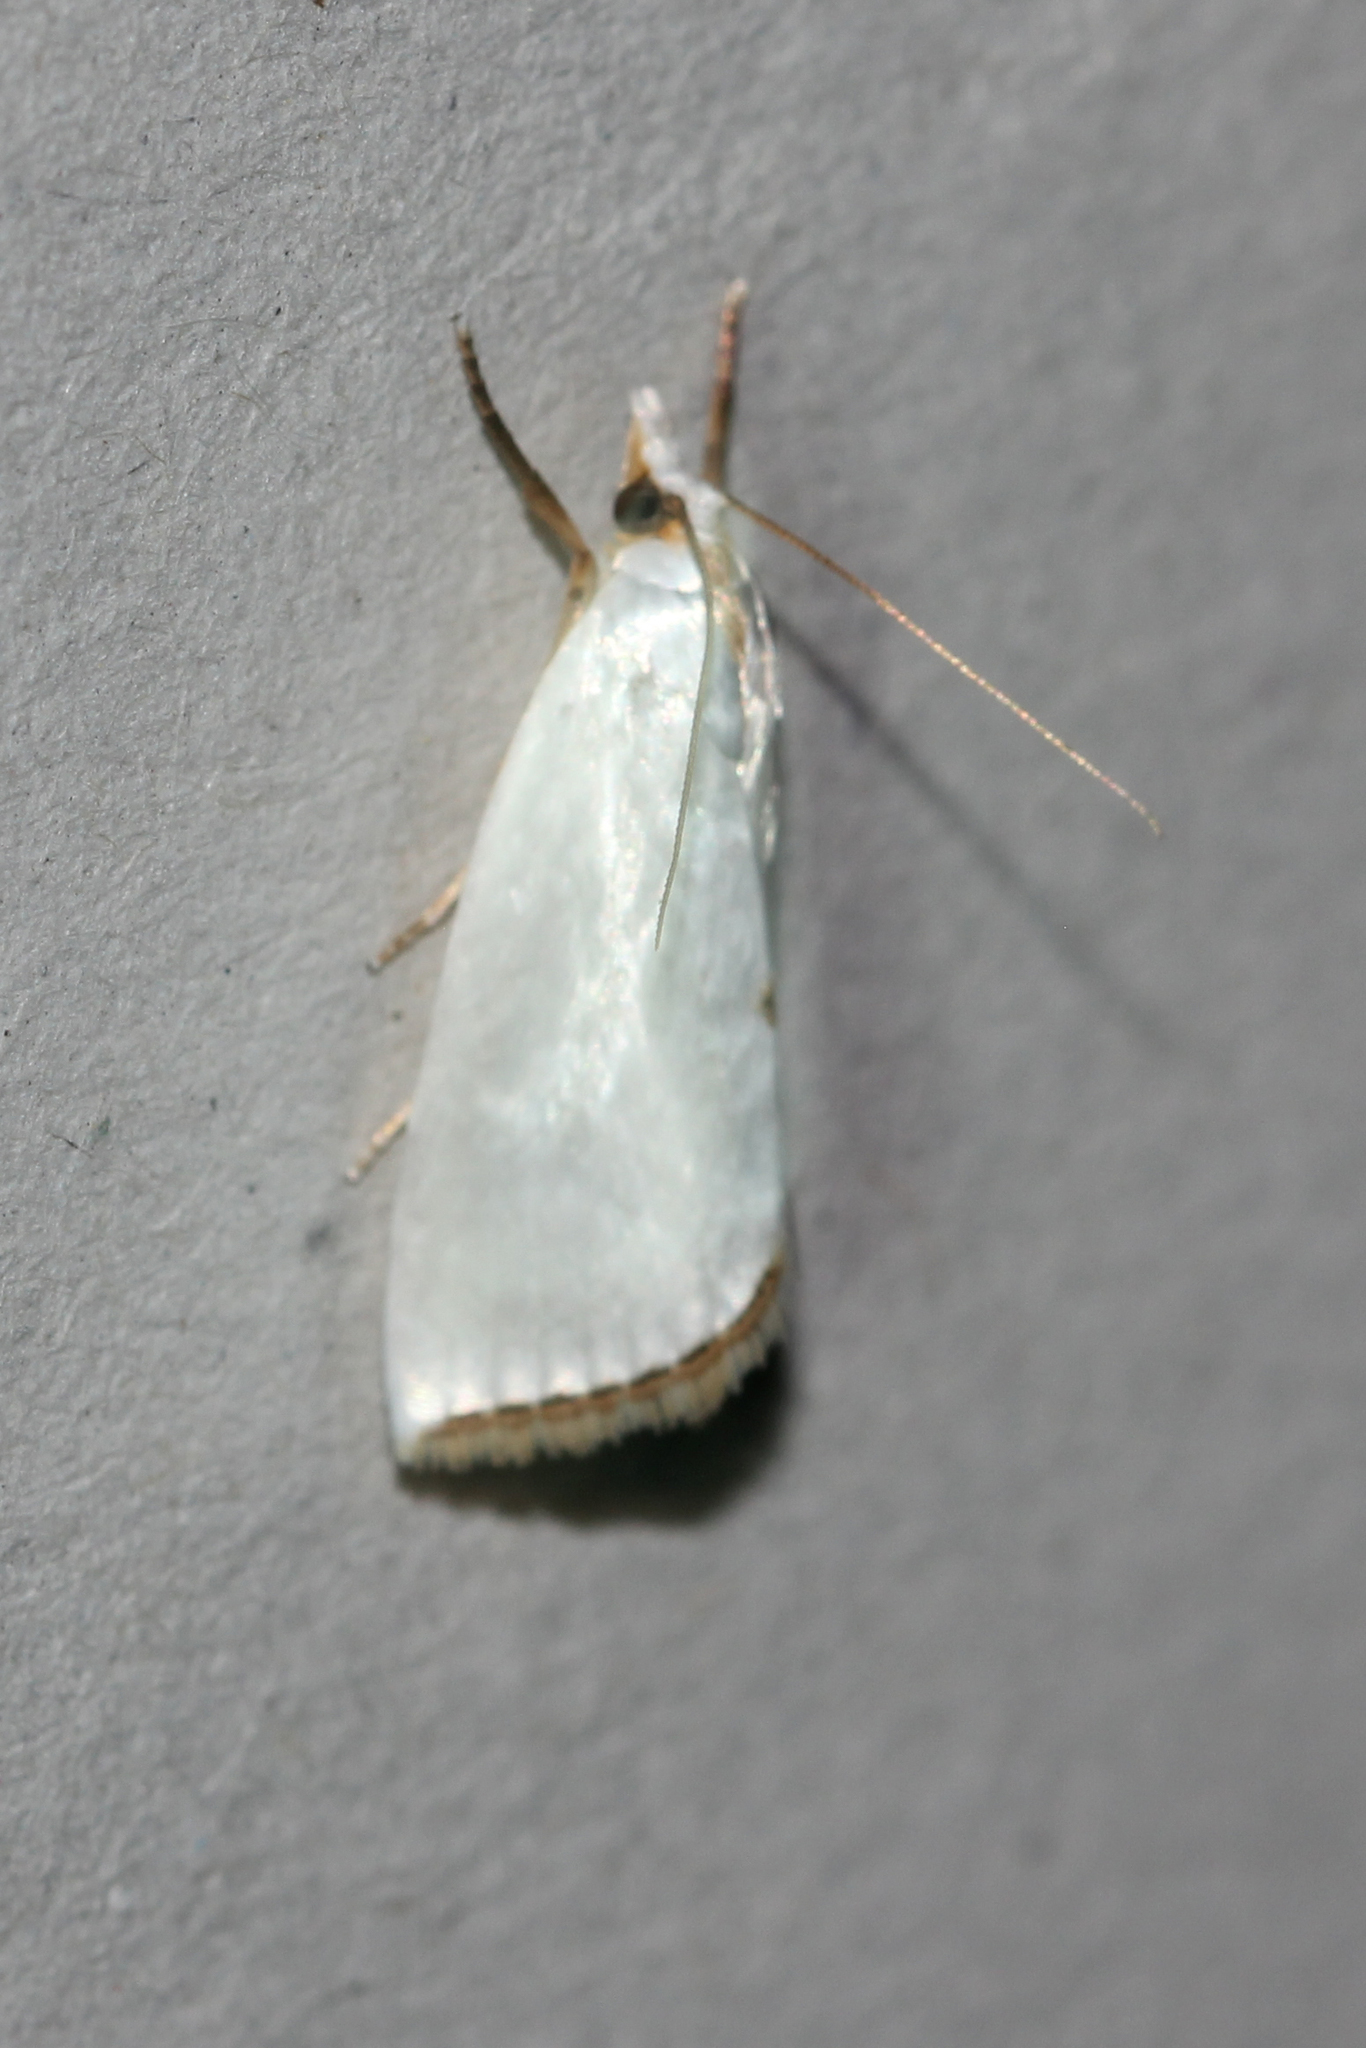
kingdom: Animalia
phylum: Arthropoda
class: Insecta
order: Lepidoptera
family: Crambidae
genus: Argyria
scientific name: Argyria nivalis
